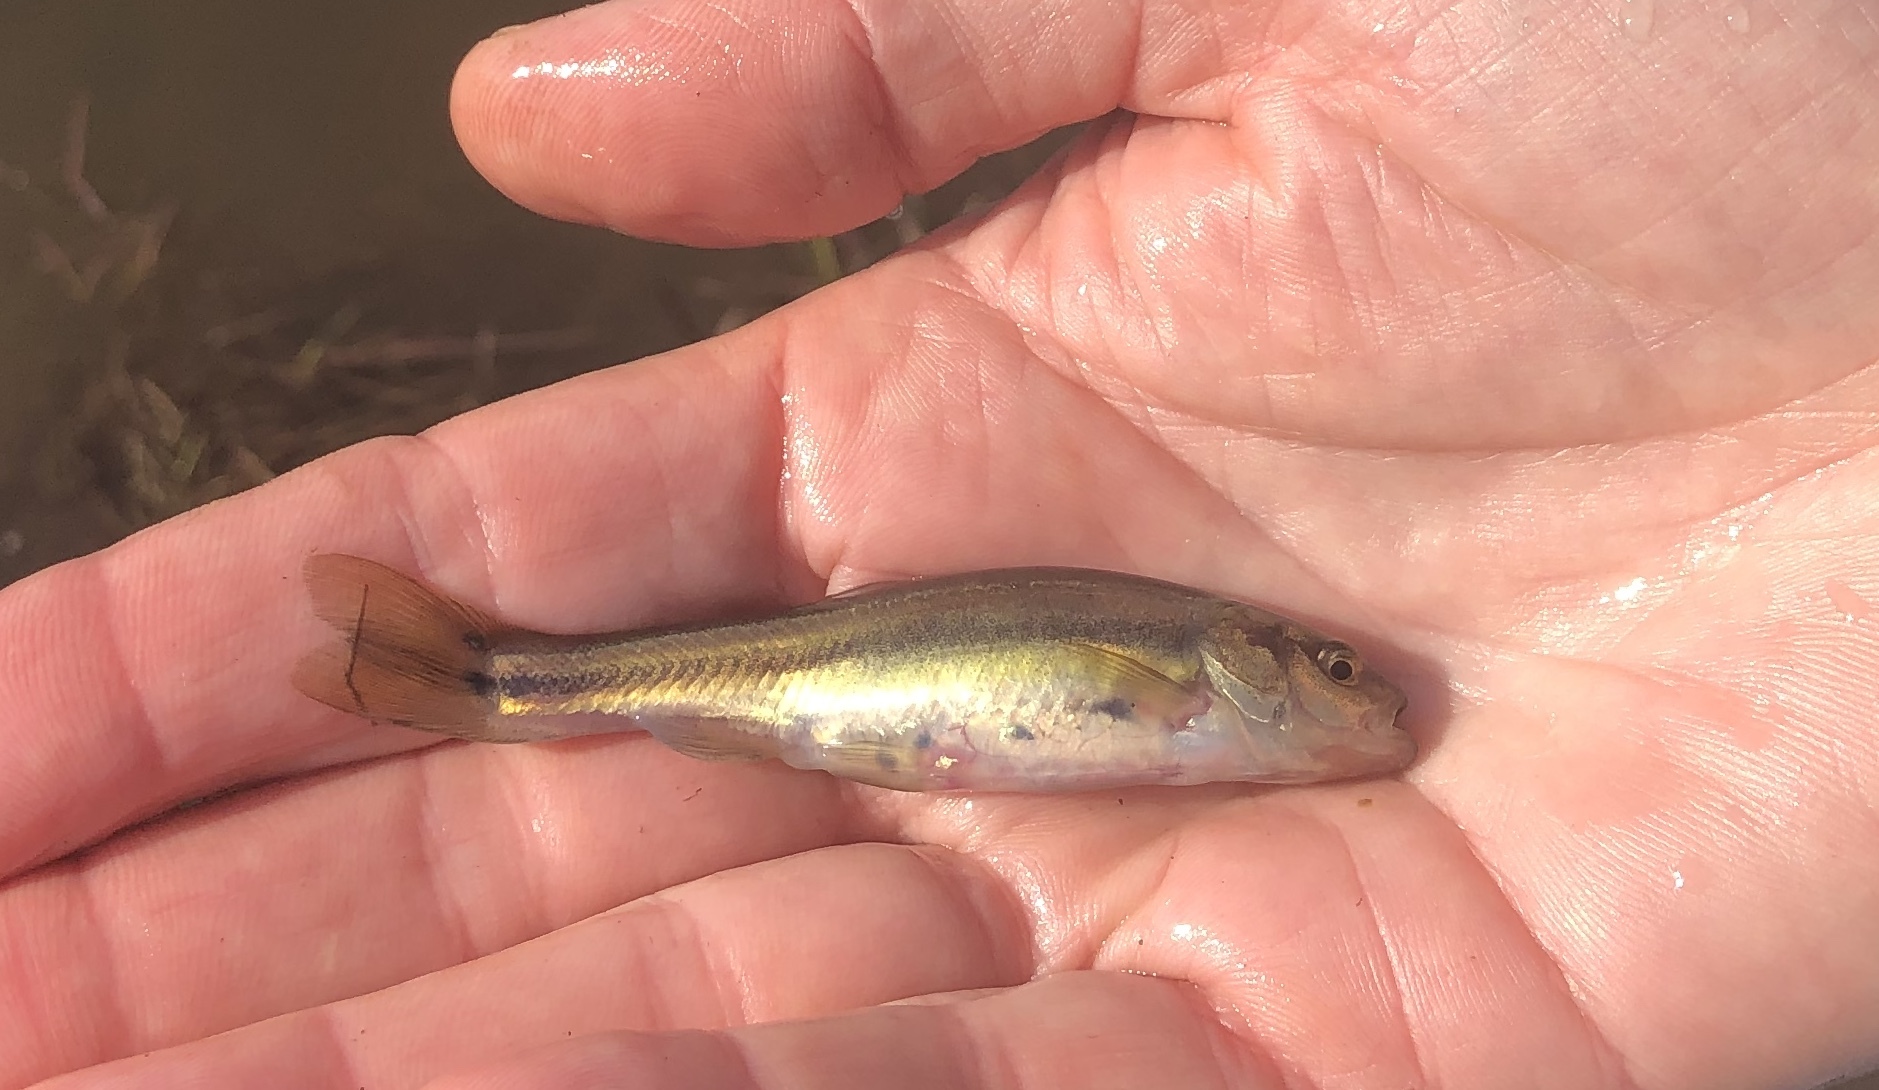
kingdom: Animalia
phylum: Chordata
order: Cypriniformes
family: Cyprinidae
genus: Chrosomus
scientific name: Chrosomus neogaeus
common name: Finescale dace
